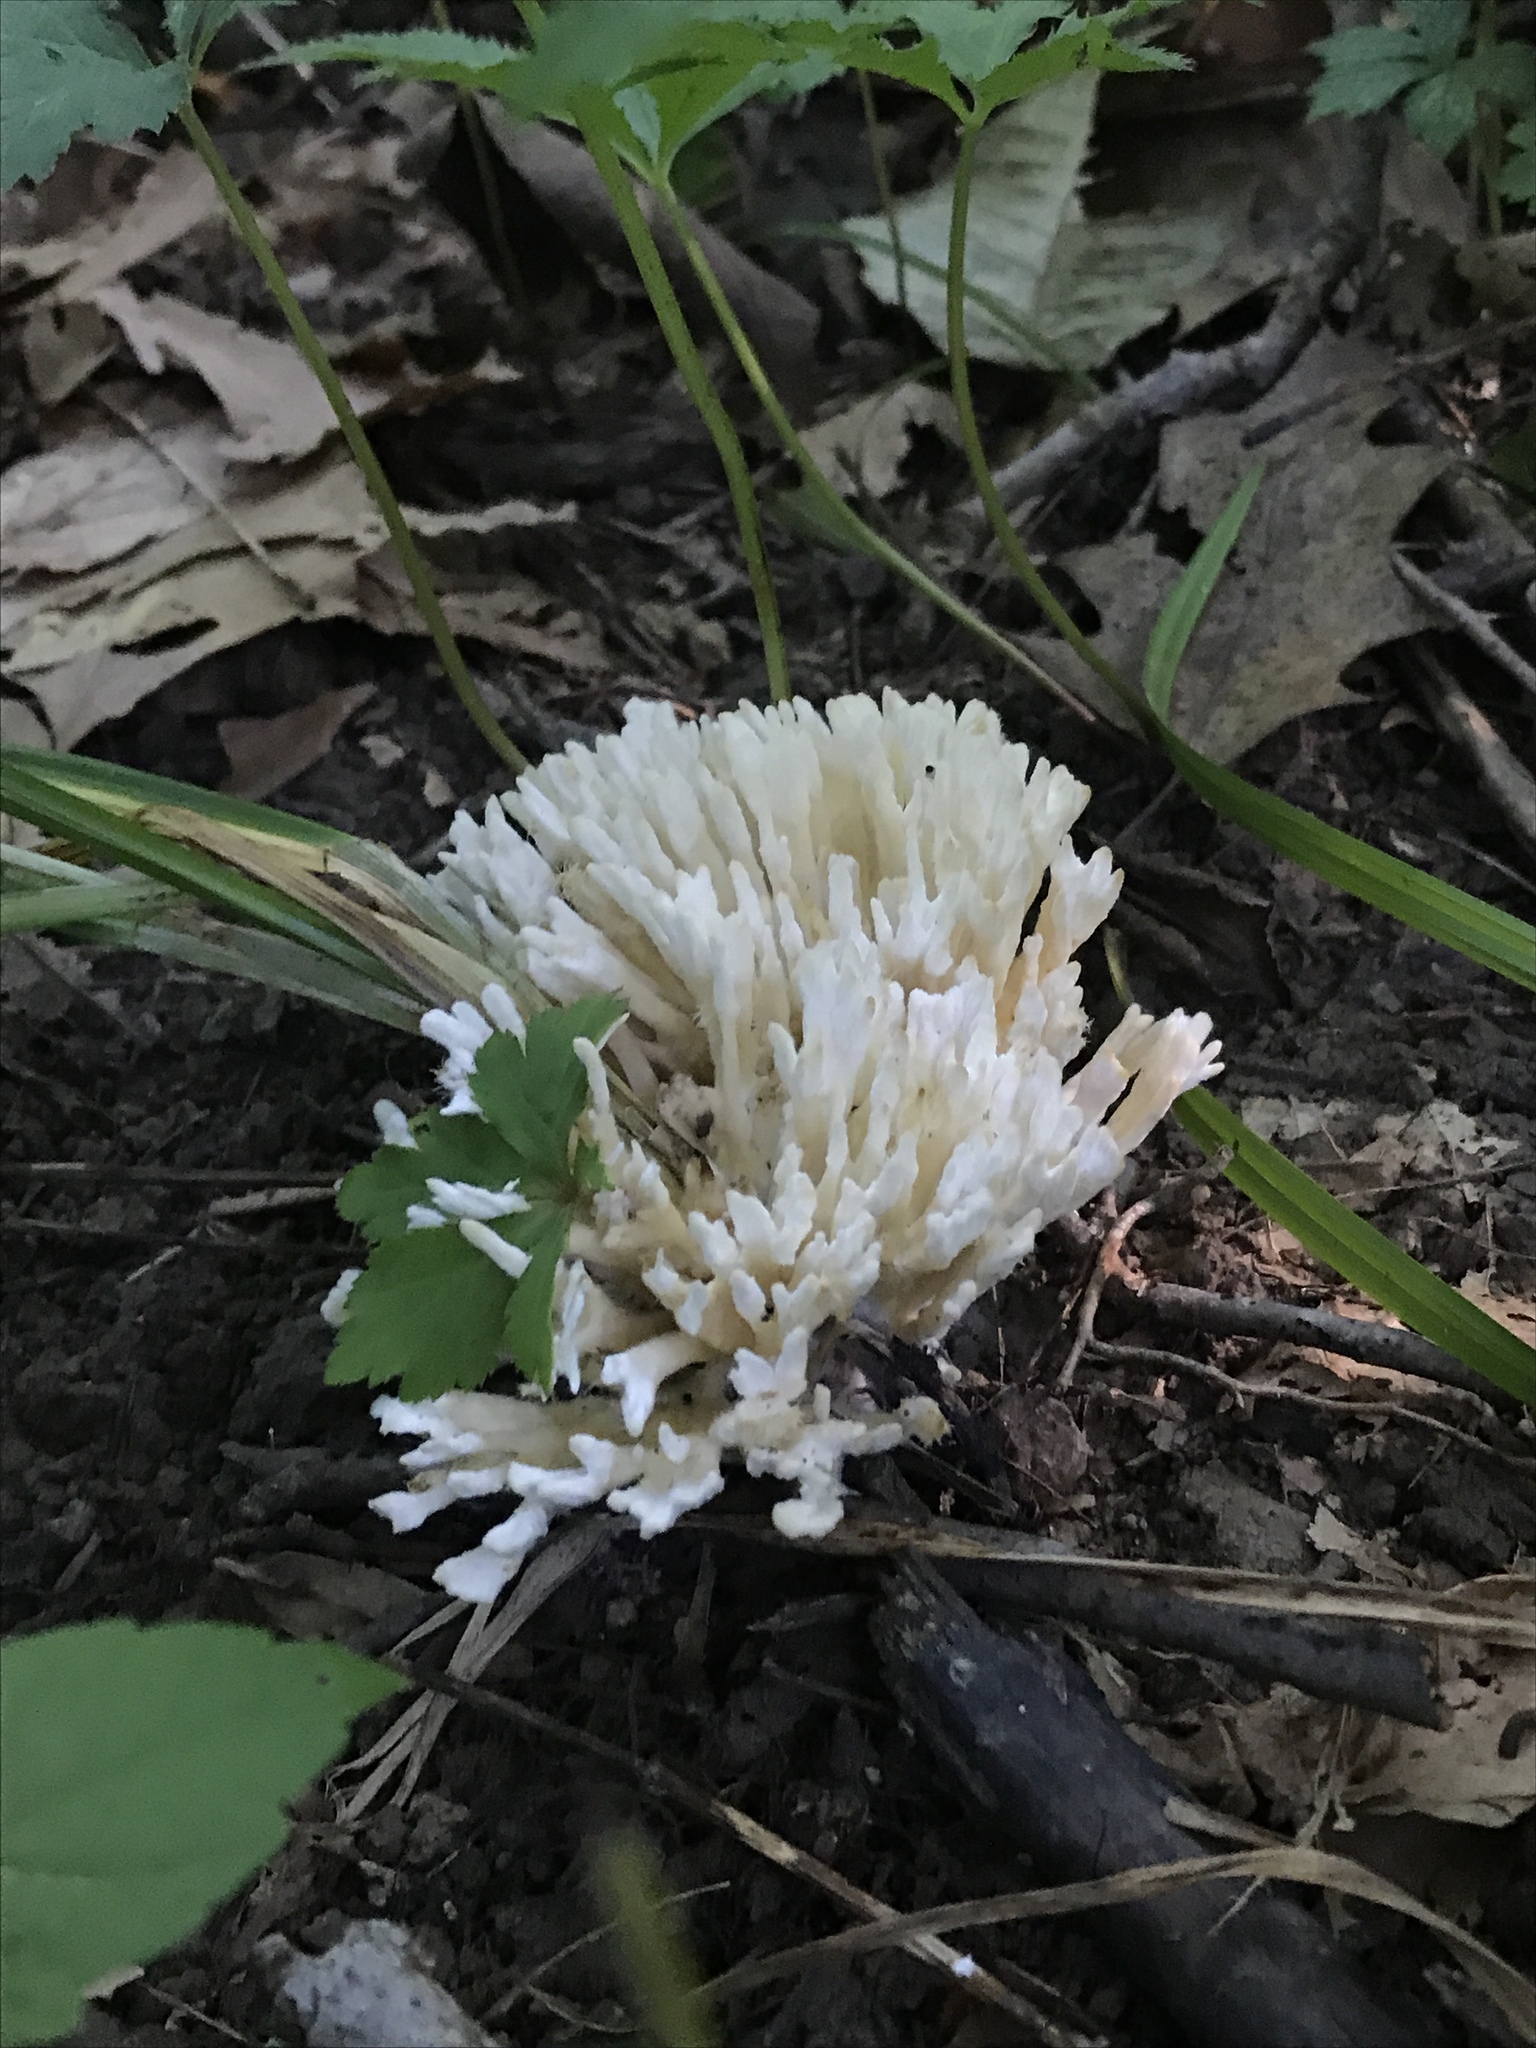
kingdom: Fungi
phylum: Basidiomycota
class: Agaricomycetes
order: Sebacinales
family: Sebacinaceae
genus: Sebacina
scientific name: Sebacina schweinitzii
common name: Jellied false coral fungus
